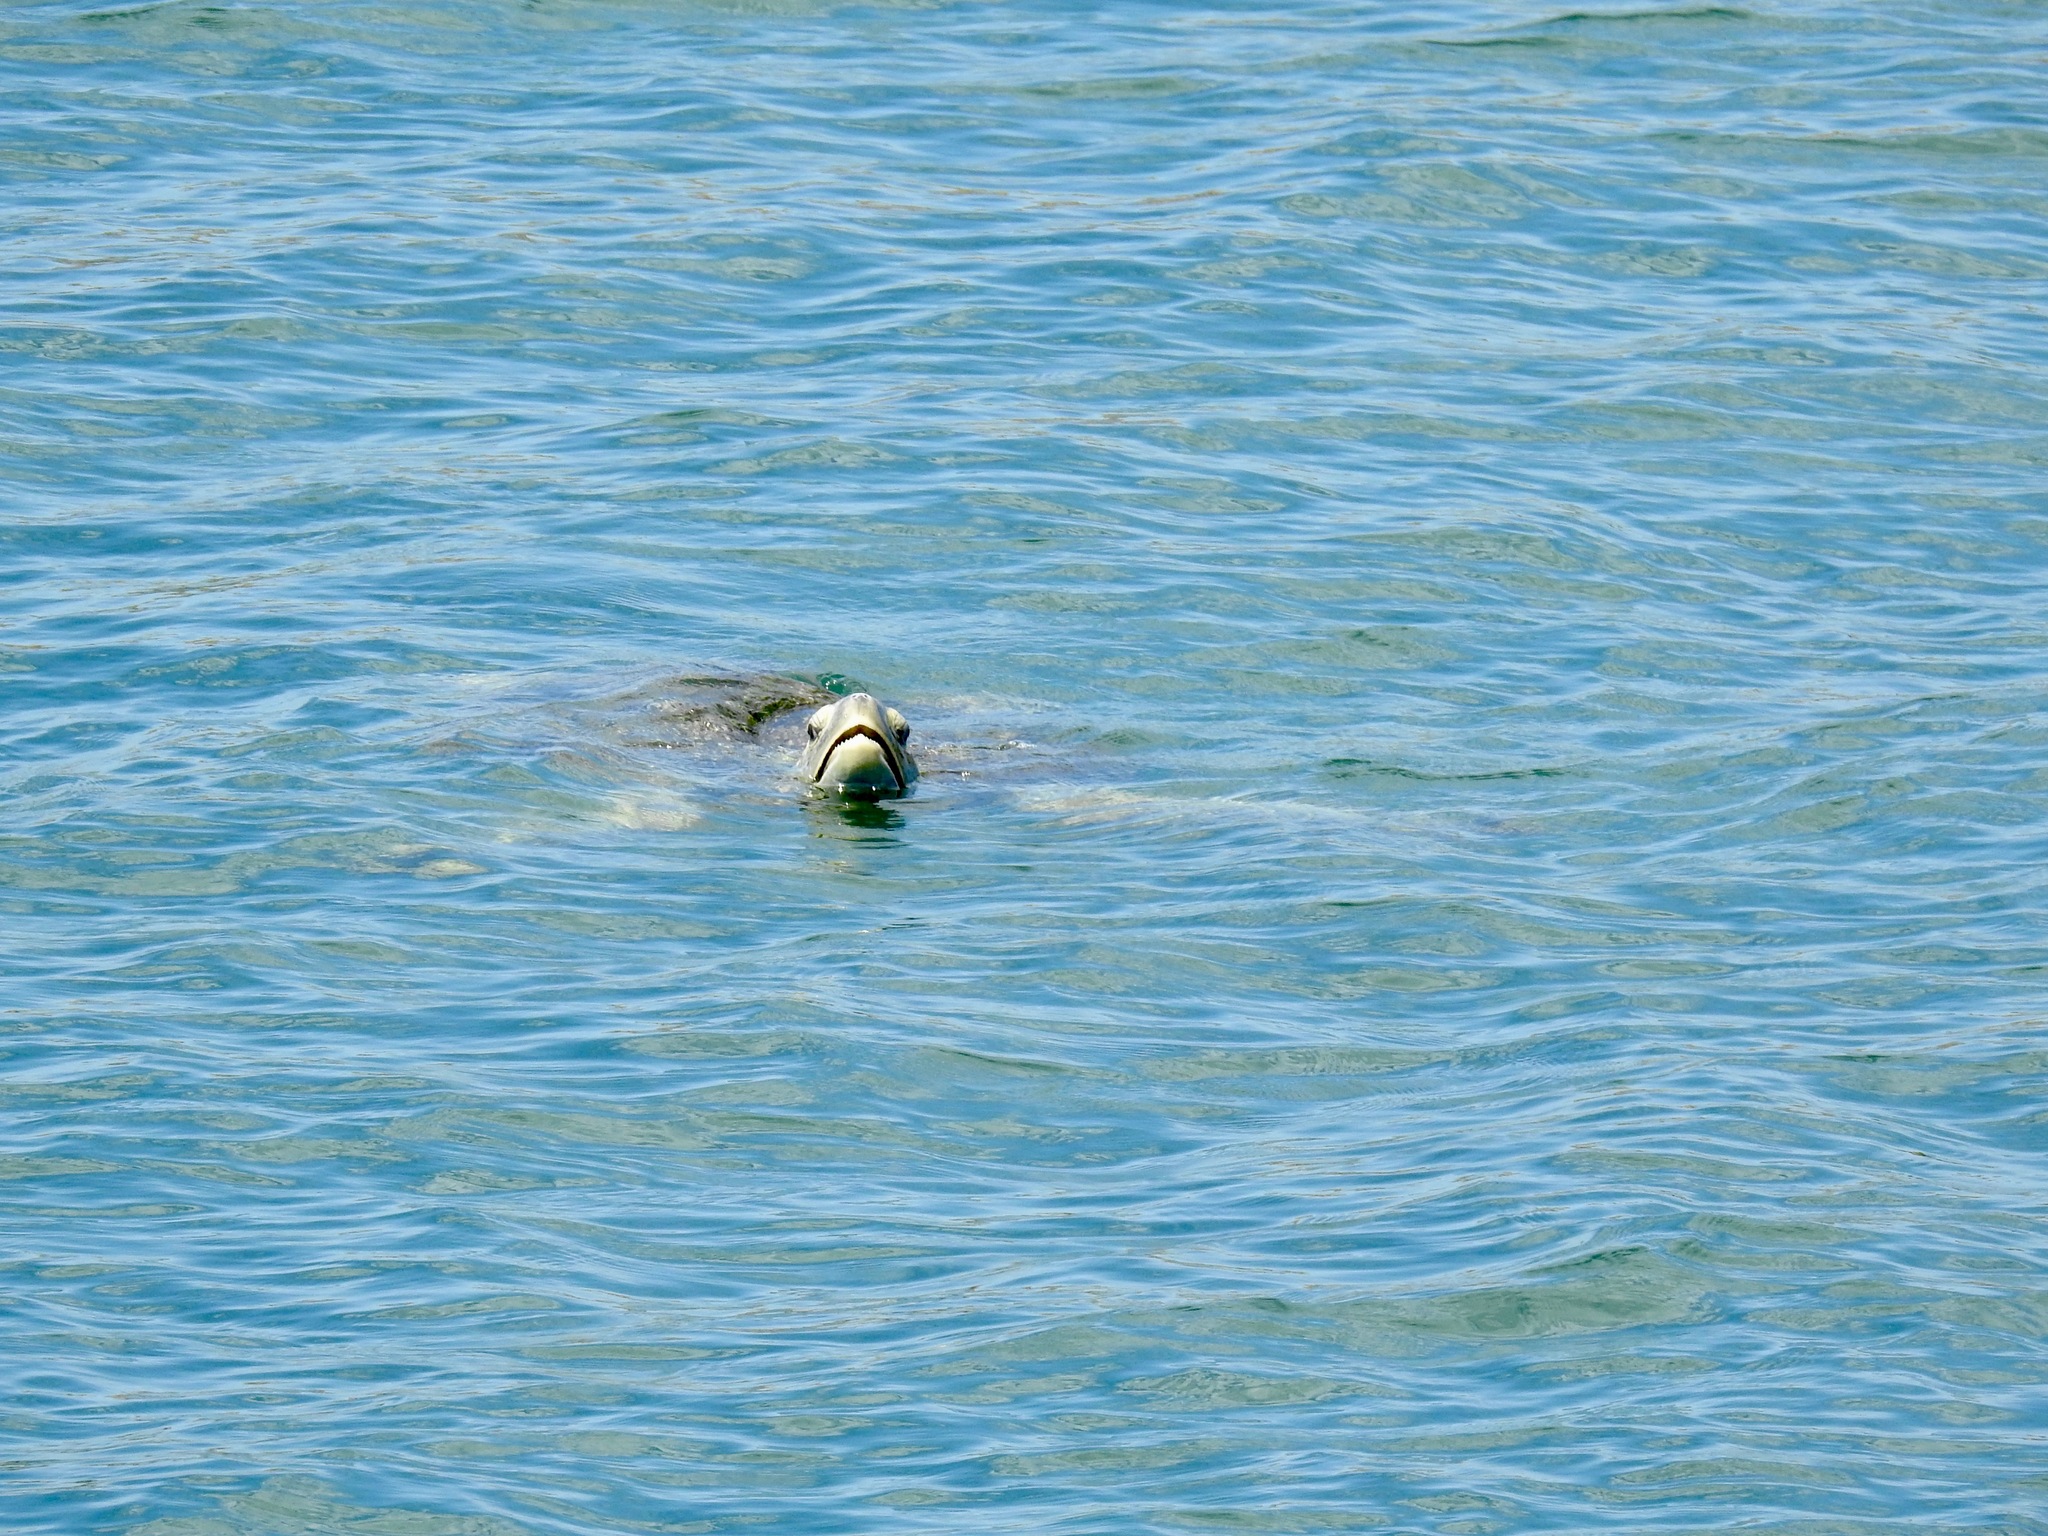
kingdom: Animalia
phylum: Chordata
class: Testudines
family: Cheloniidae
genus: Chelonia
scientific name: Chelonia mydas
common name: Green turtle
